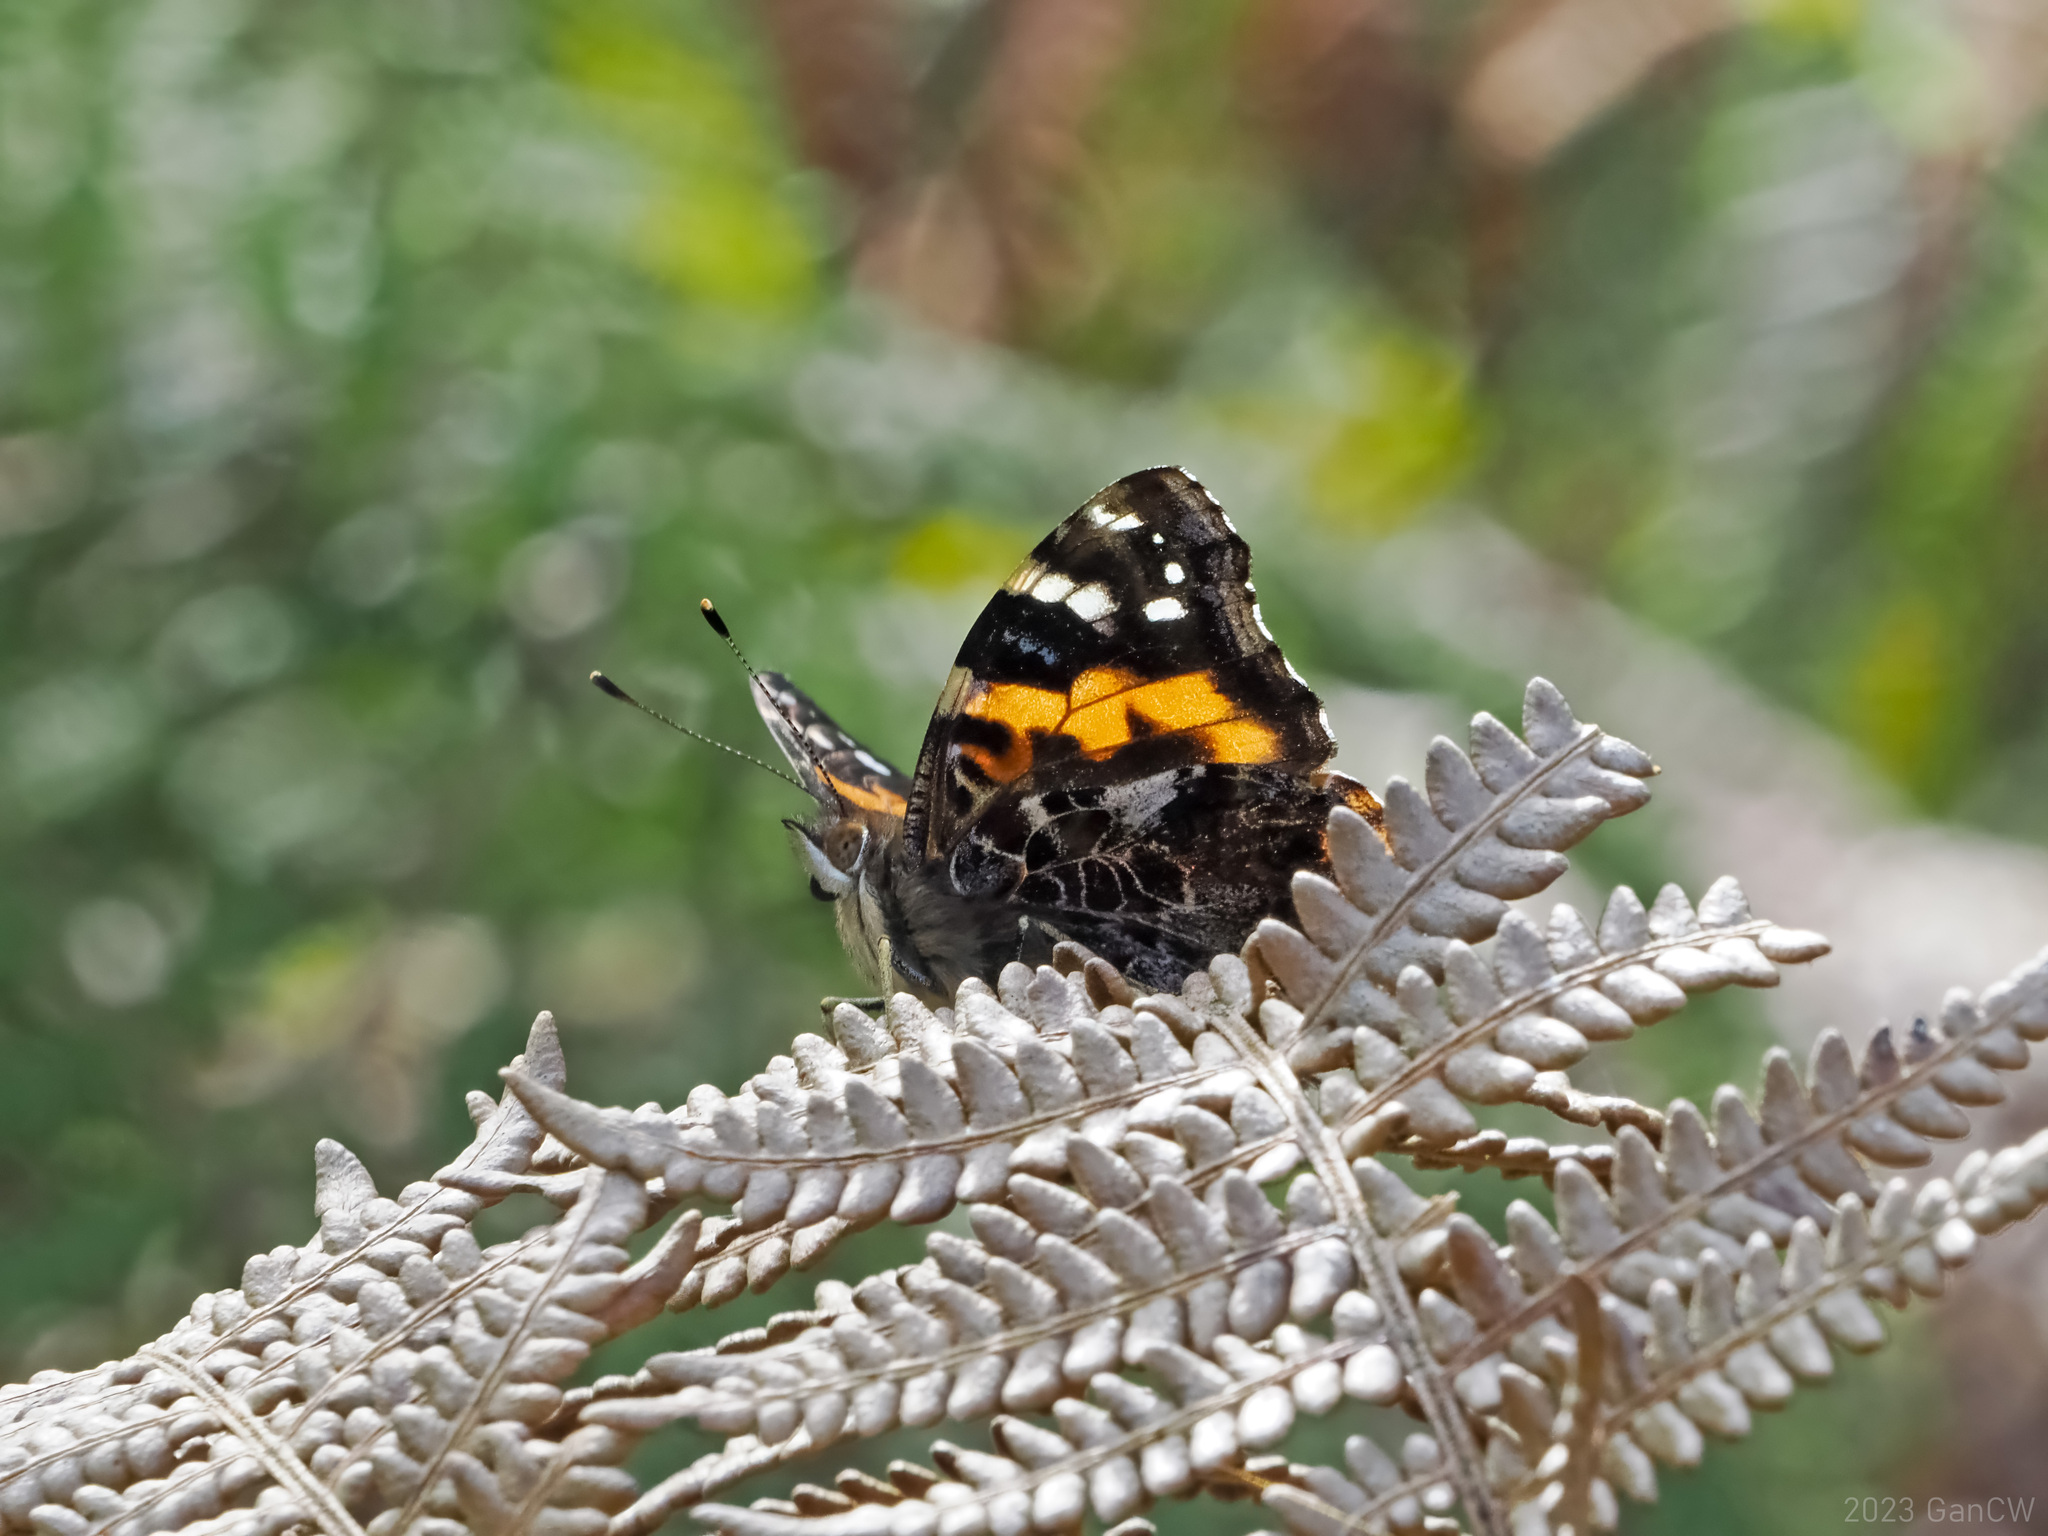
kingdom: Animalia
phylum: Arthropoda
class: Insecta
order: Lepidoptera
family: Nymphalidae
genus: Vanessa
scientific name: Vanessa buana
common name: Lompobatang lady
